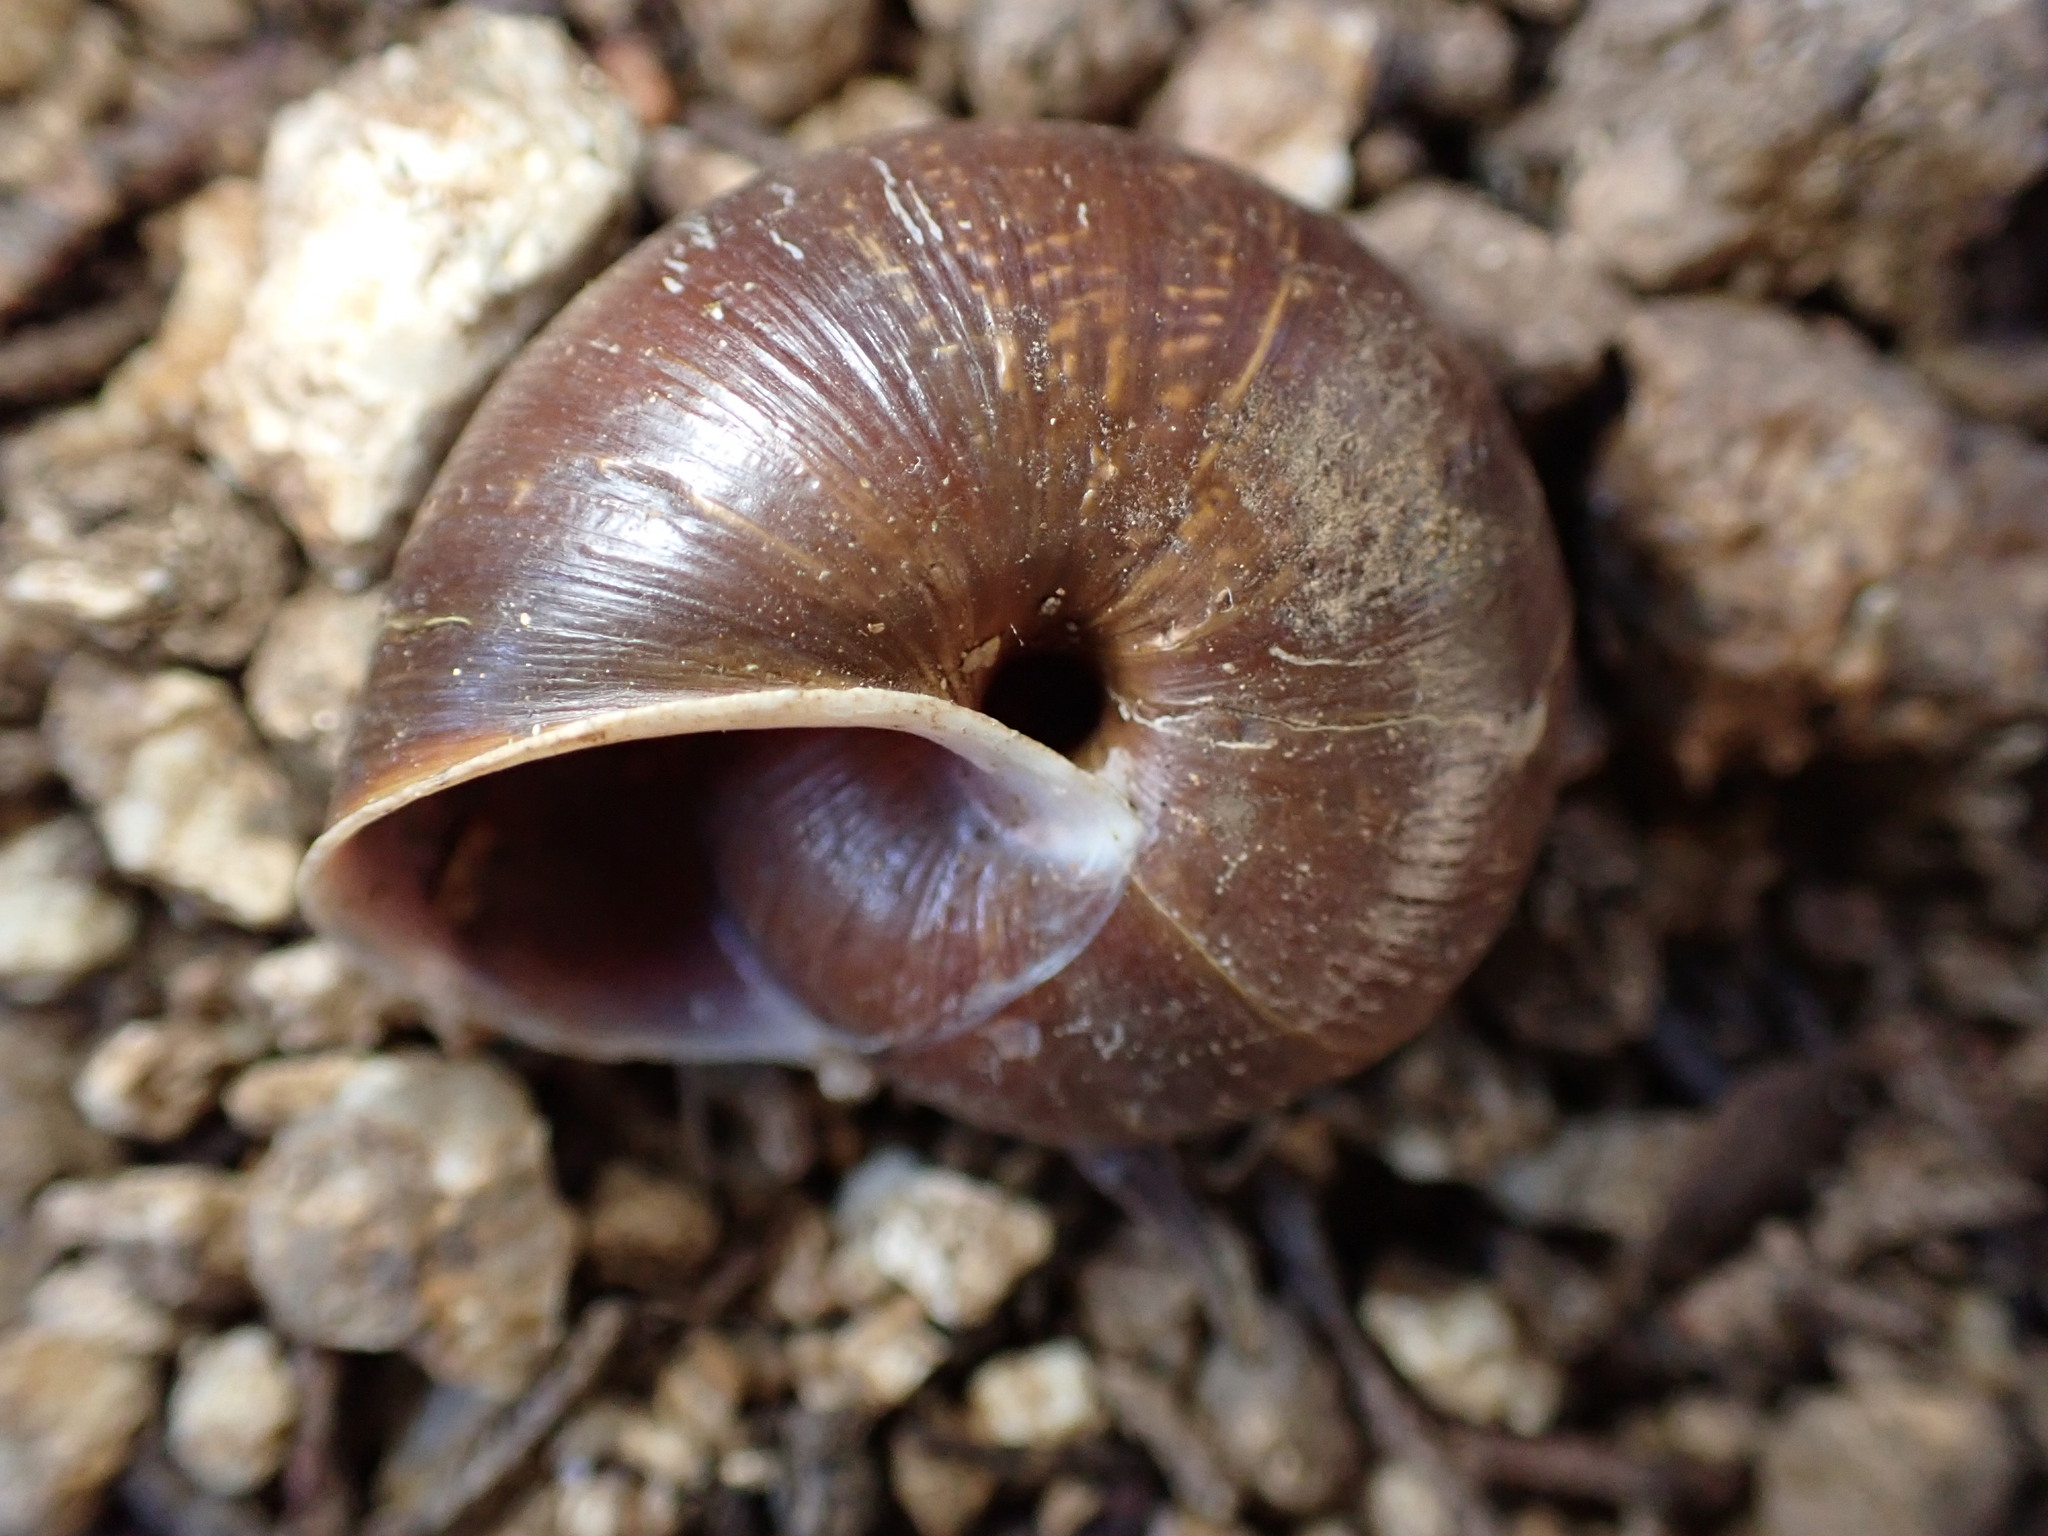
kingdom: Animalia
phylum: Mollusca
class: Gastropoda
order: Stylommatophora
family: Xanthonychidae
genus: Helminthoglypta
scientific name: Helminthoglypta arrosa
